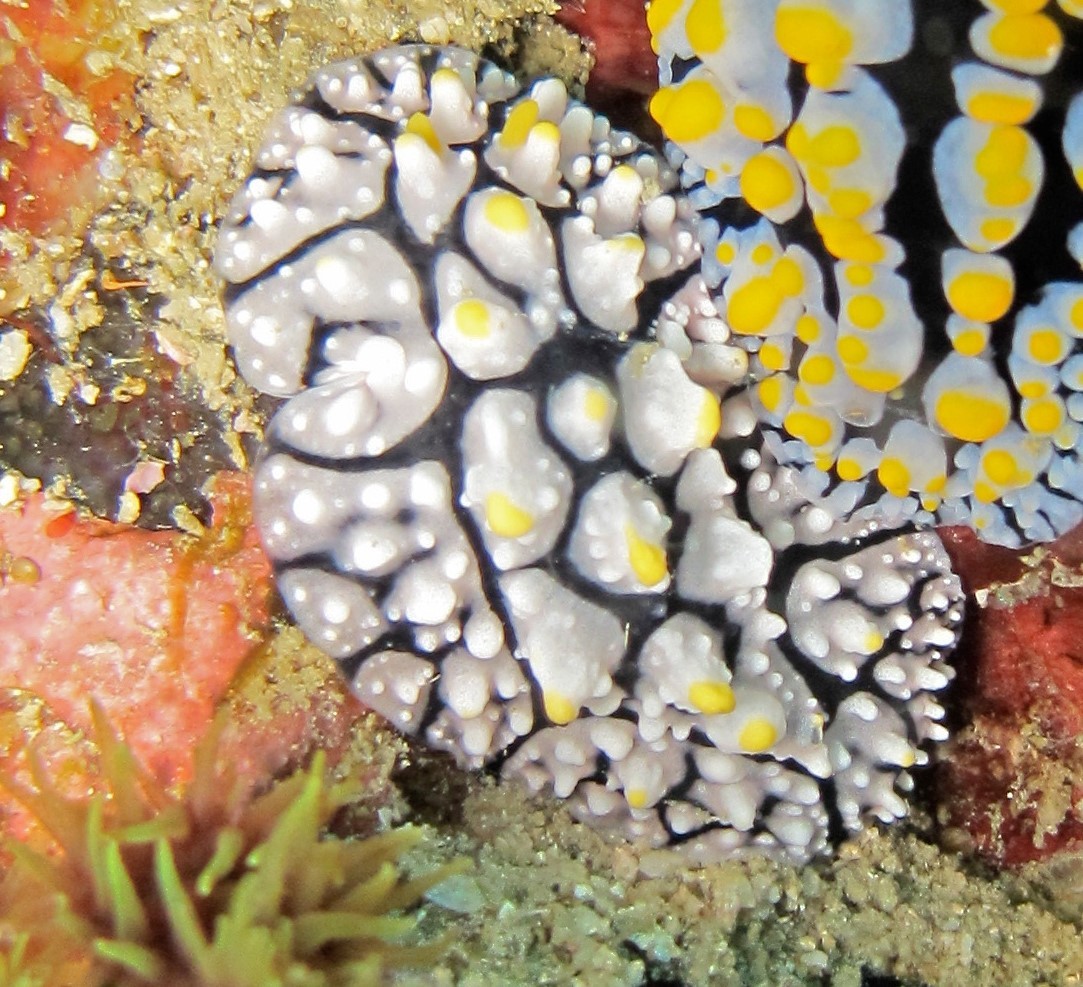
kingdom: Animalia
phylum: Mollusca
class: Gastropoda
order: Nudibranchia
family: Phyllidiidae
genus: Phyllidia
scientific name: Phyllidia elegans
